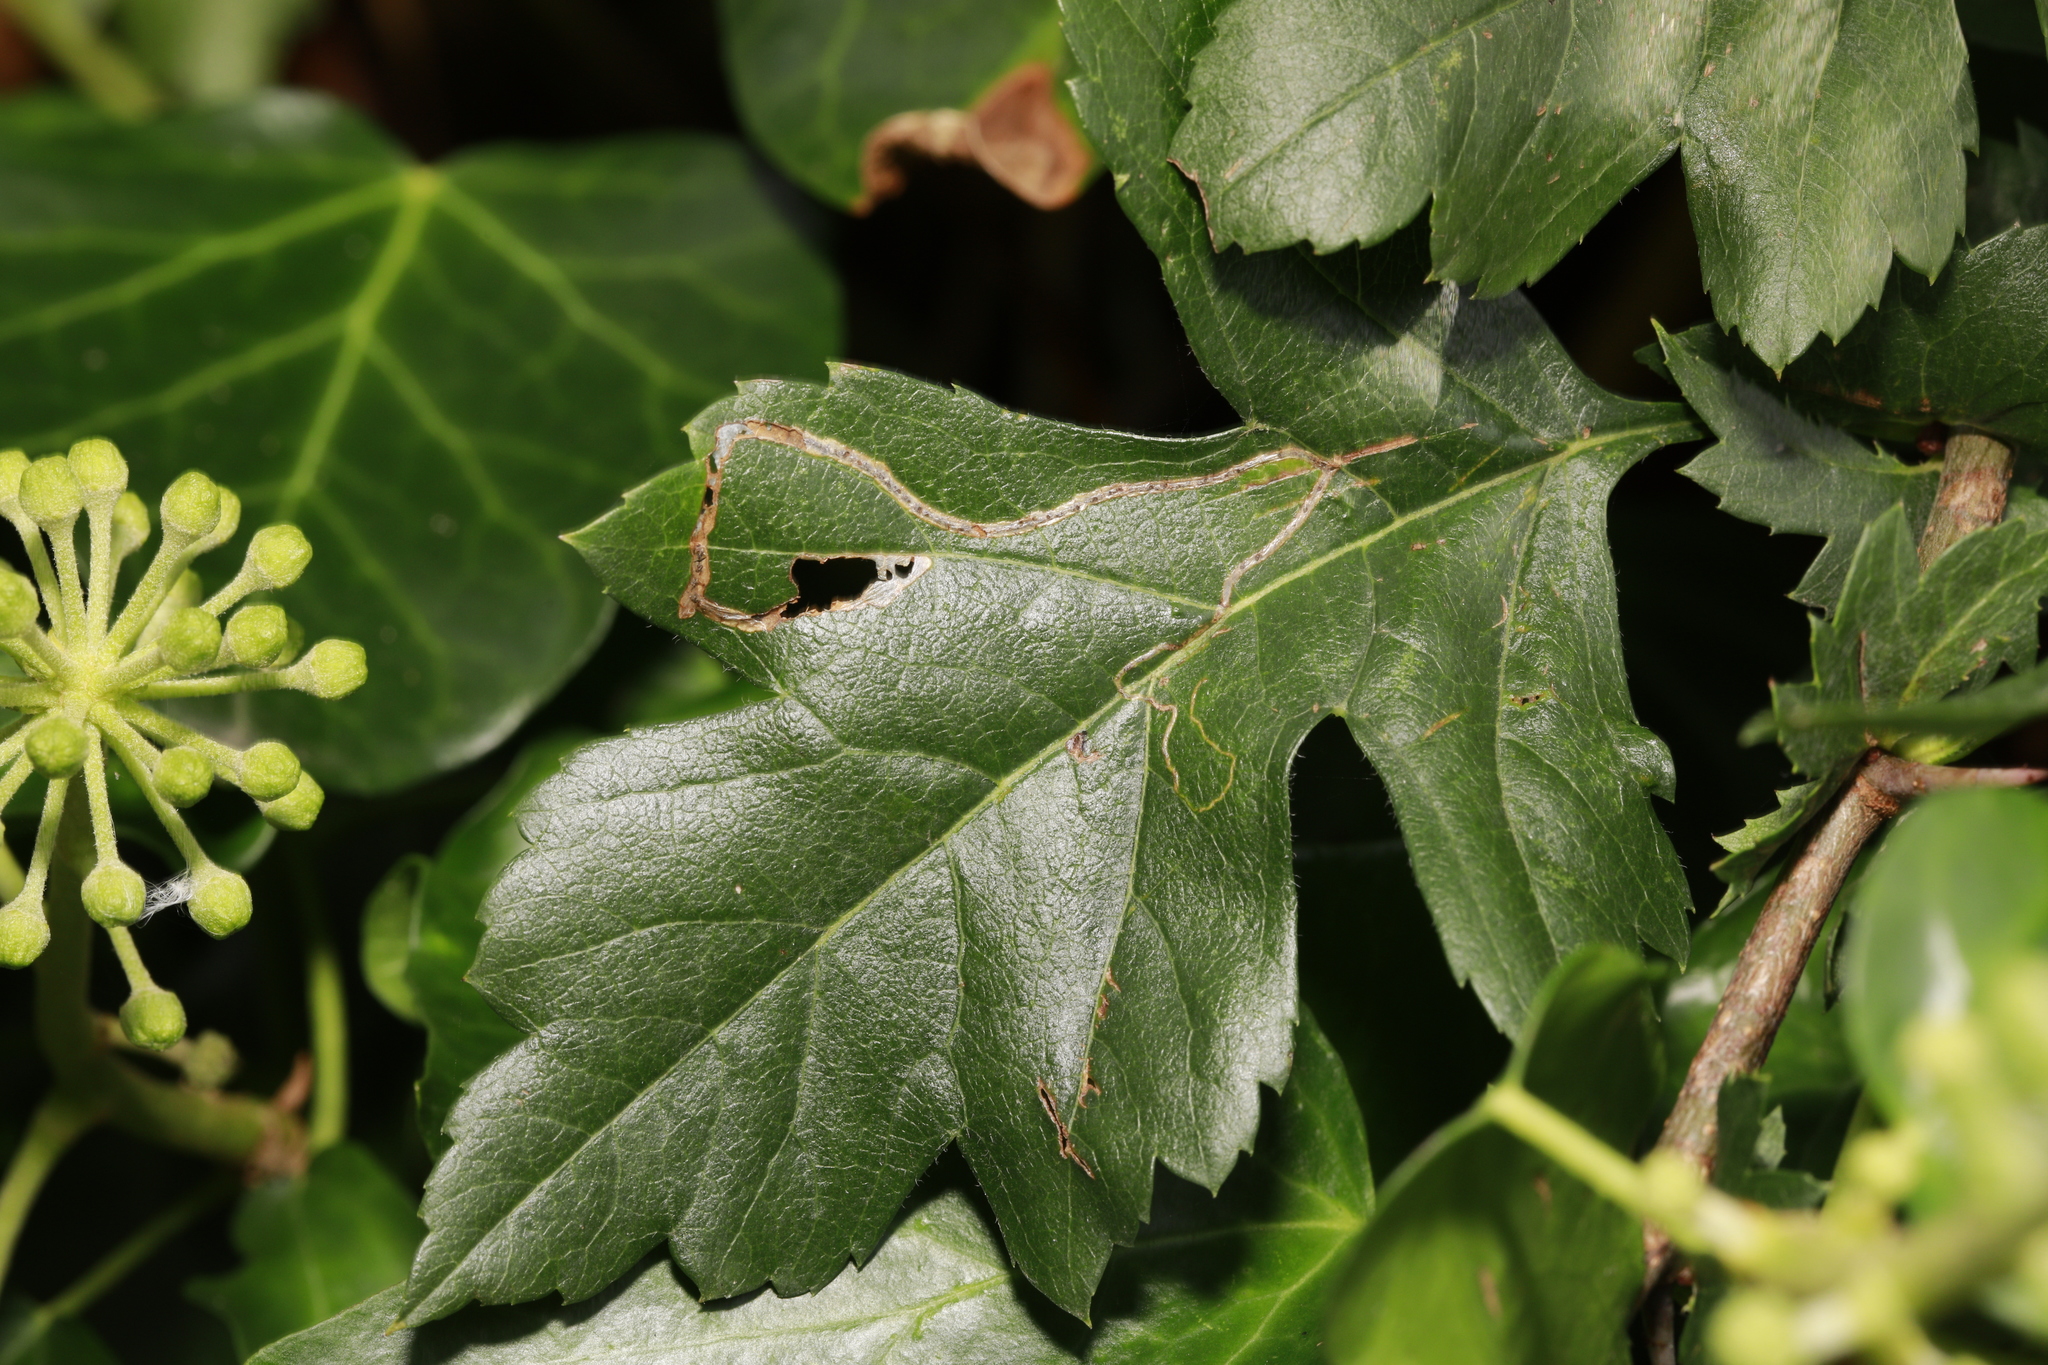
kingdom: Animalia
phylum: Arthropoda
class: Insecta
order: Lepidoptera
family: Lyonetiidae
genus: Lyonetia
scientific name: Lyonetia clerkella
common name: Apple leaf miner
